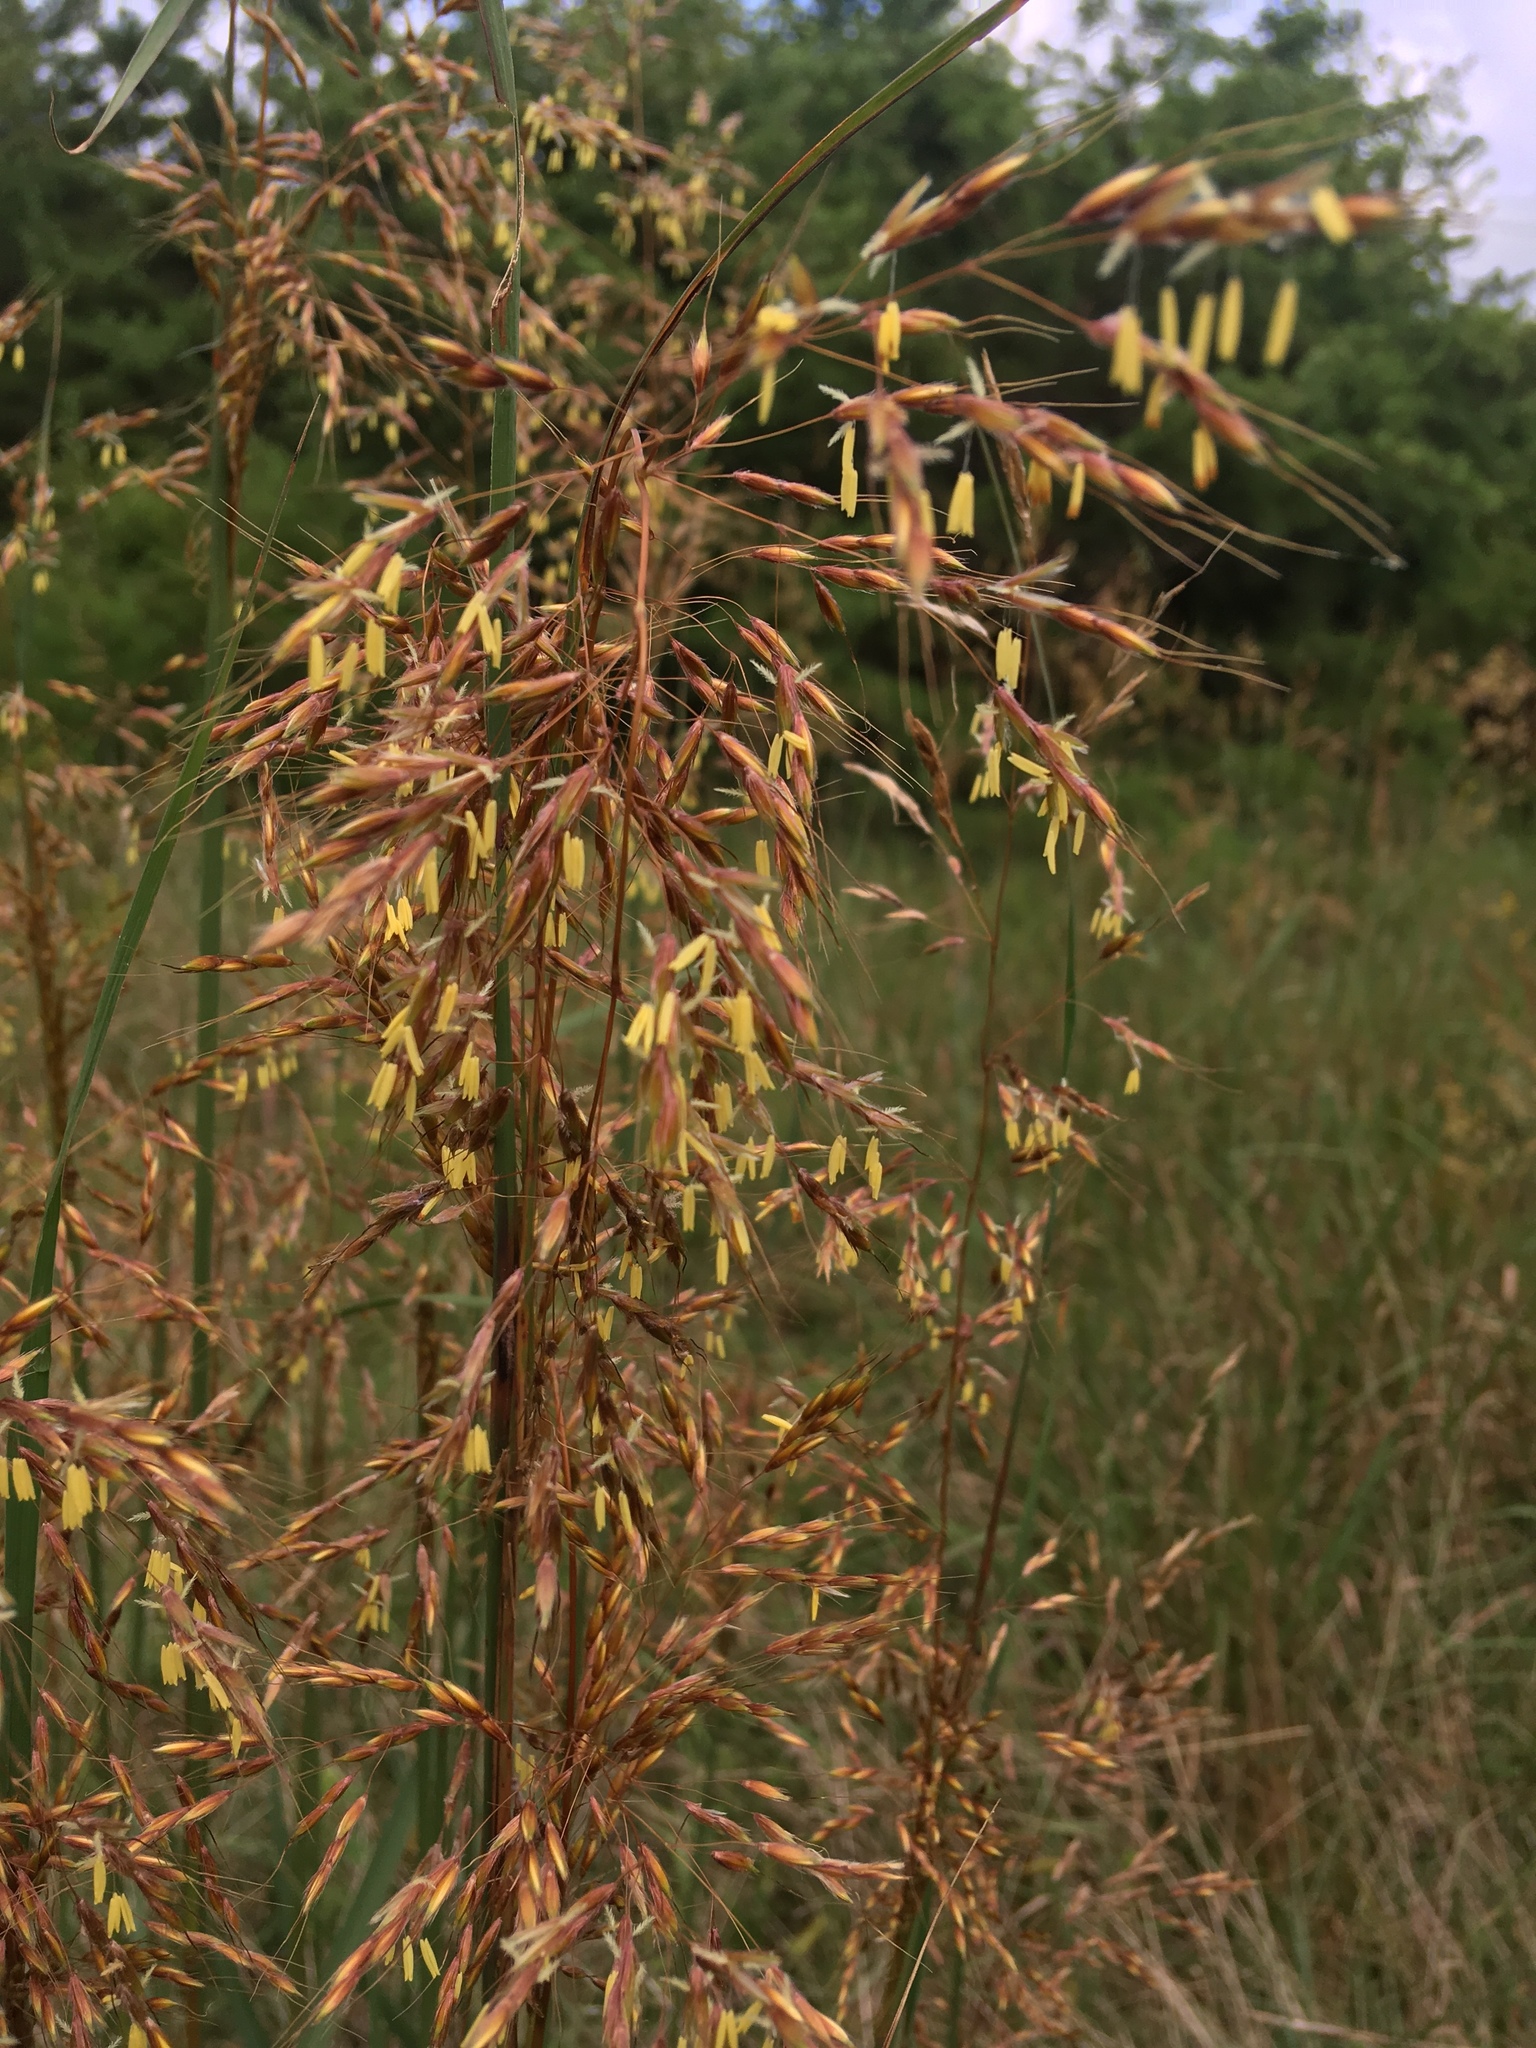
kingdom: Plantae
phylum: Tracheophyta
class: Liliopsida
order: Poales
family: Poaceae
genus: Sorghastrum
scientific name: Sorghastrum nutans
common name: Indian grass
